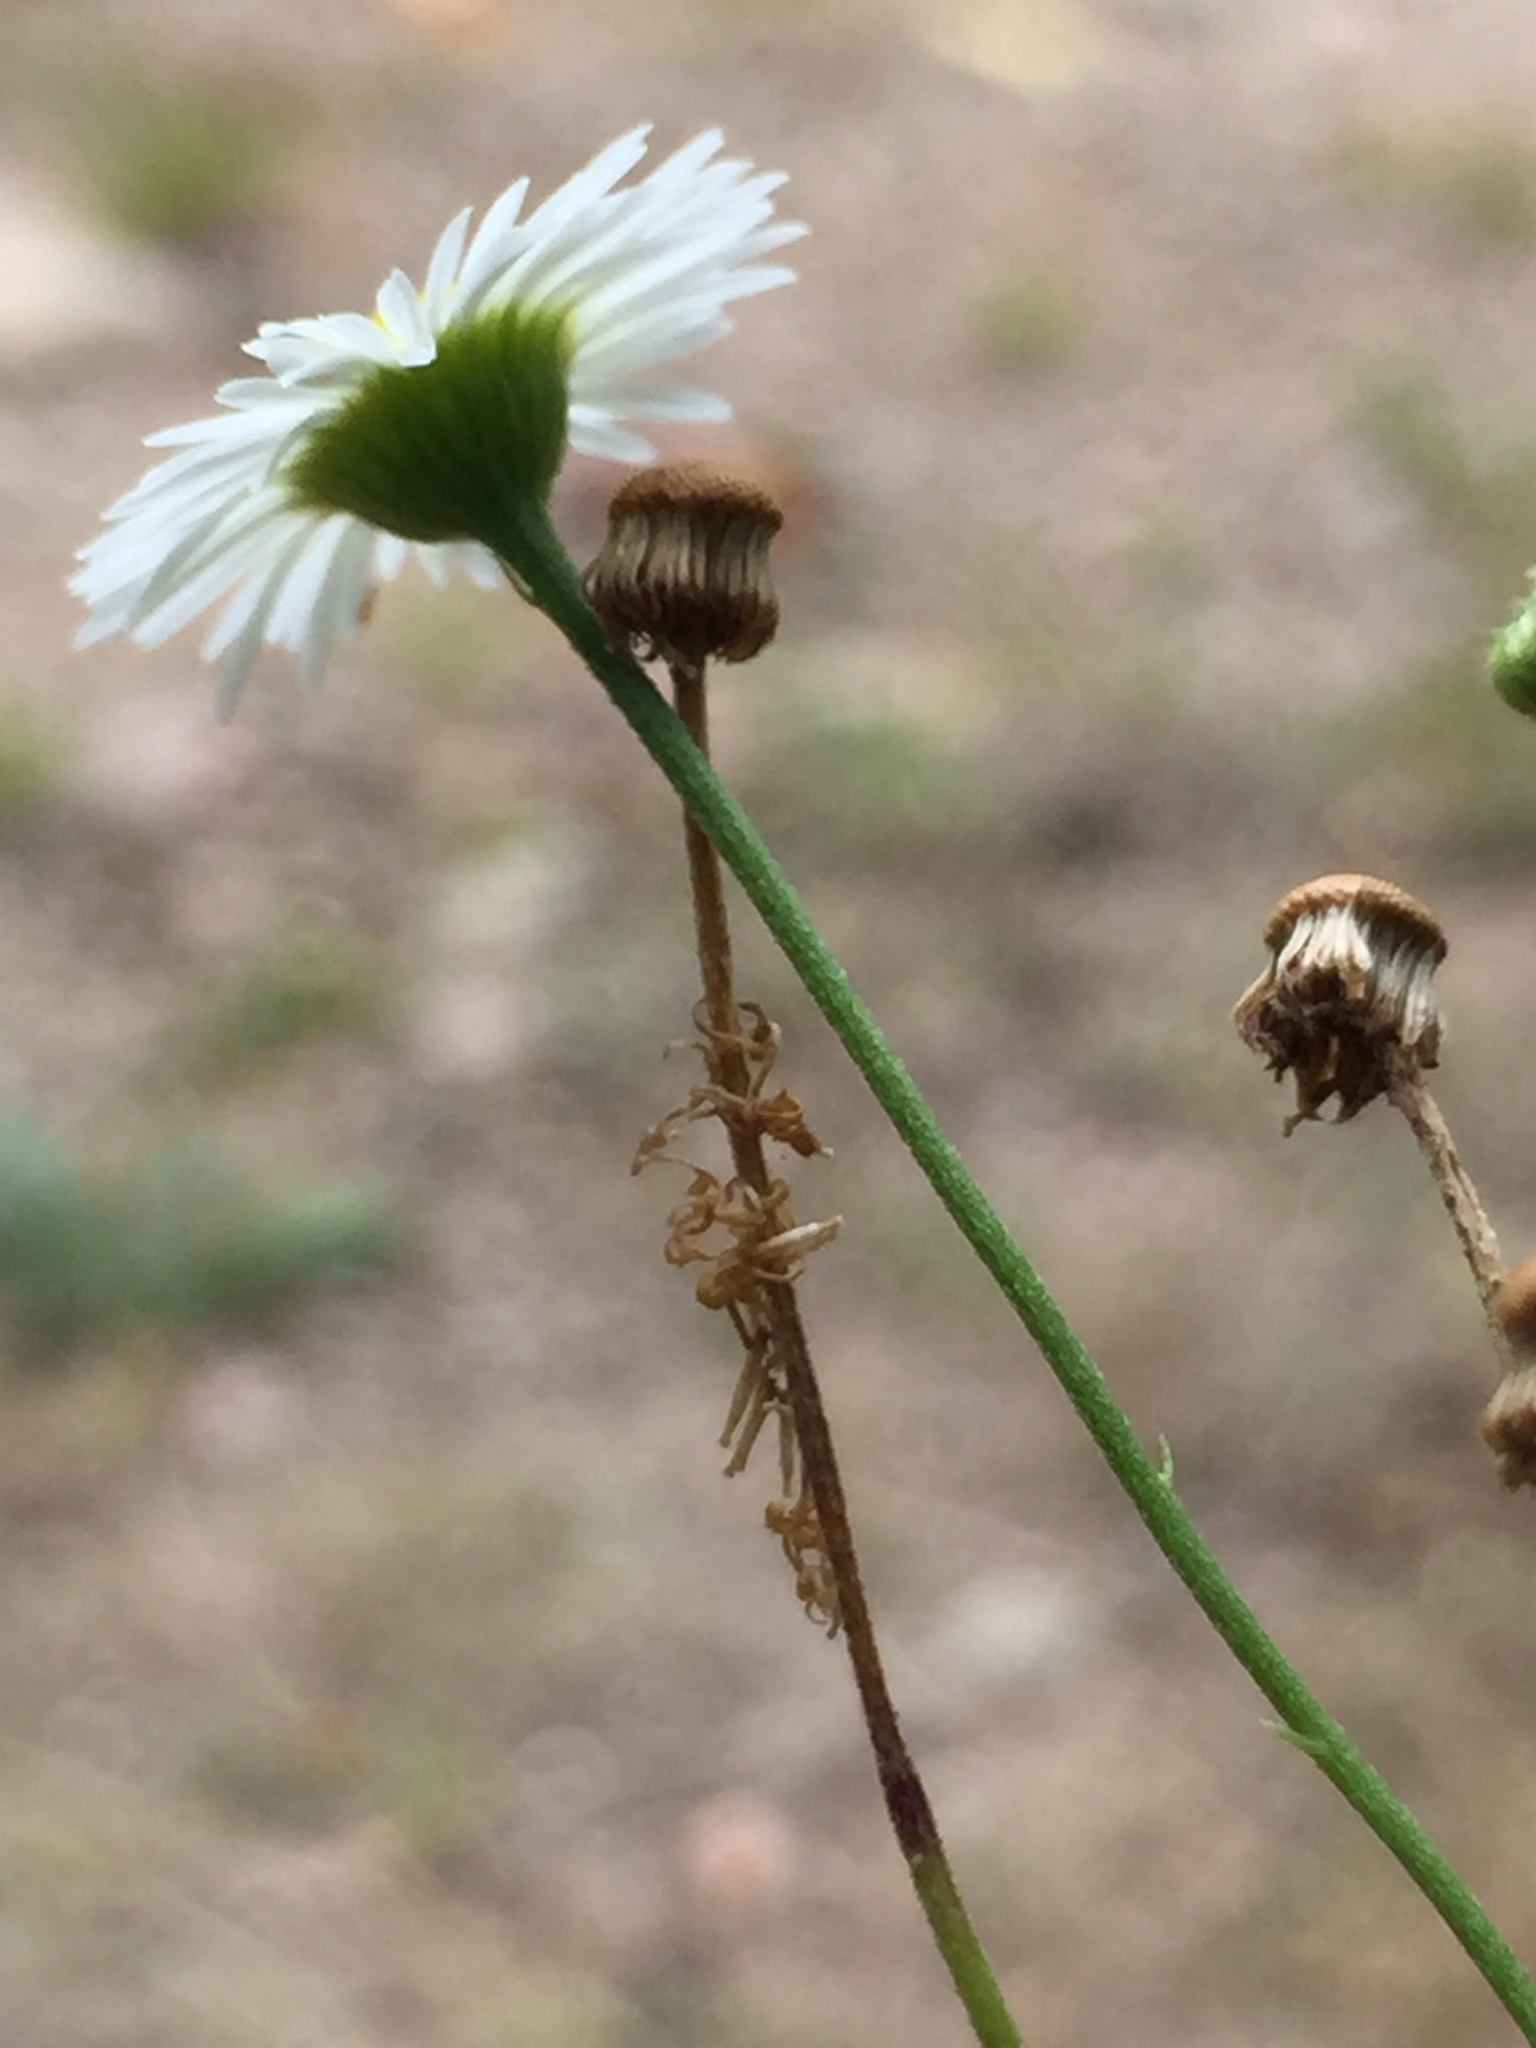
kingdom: Plantae
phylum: Tracheophyta
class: Magnoliopsida
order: Asterales
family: Asteraceae
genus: Erigeron
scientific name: Erigeron strigosus
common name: Common eastern fleabane
